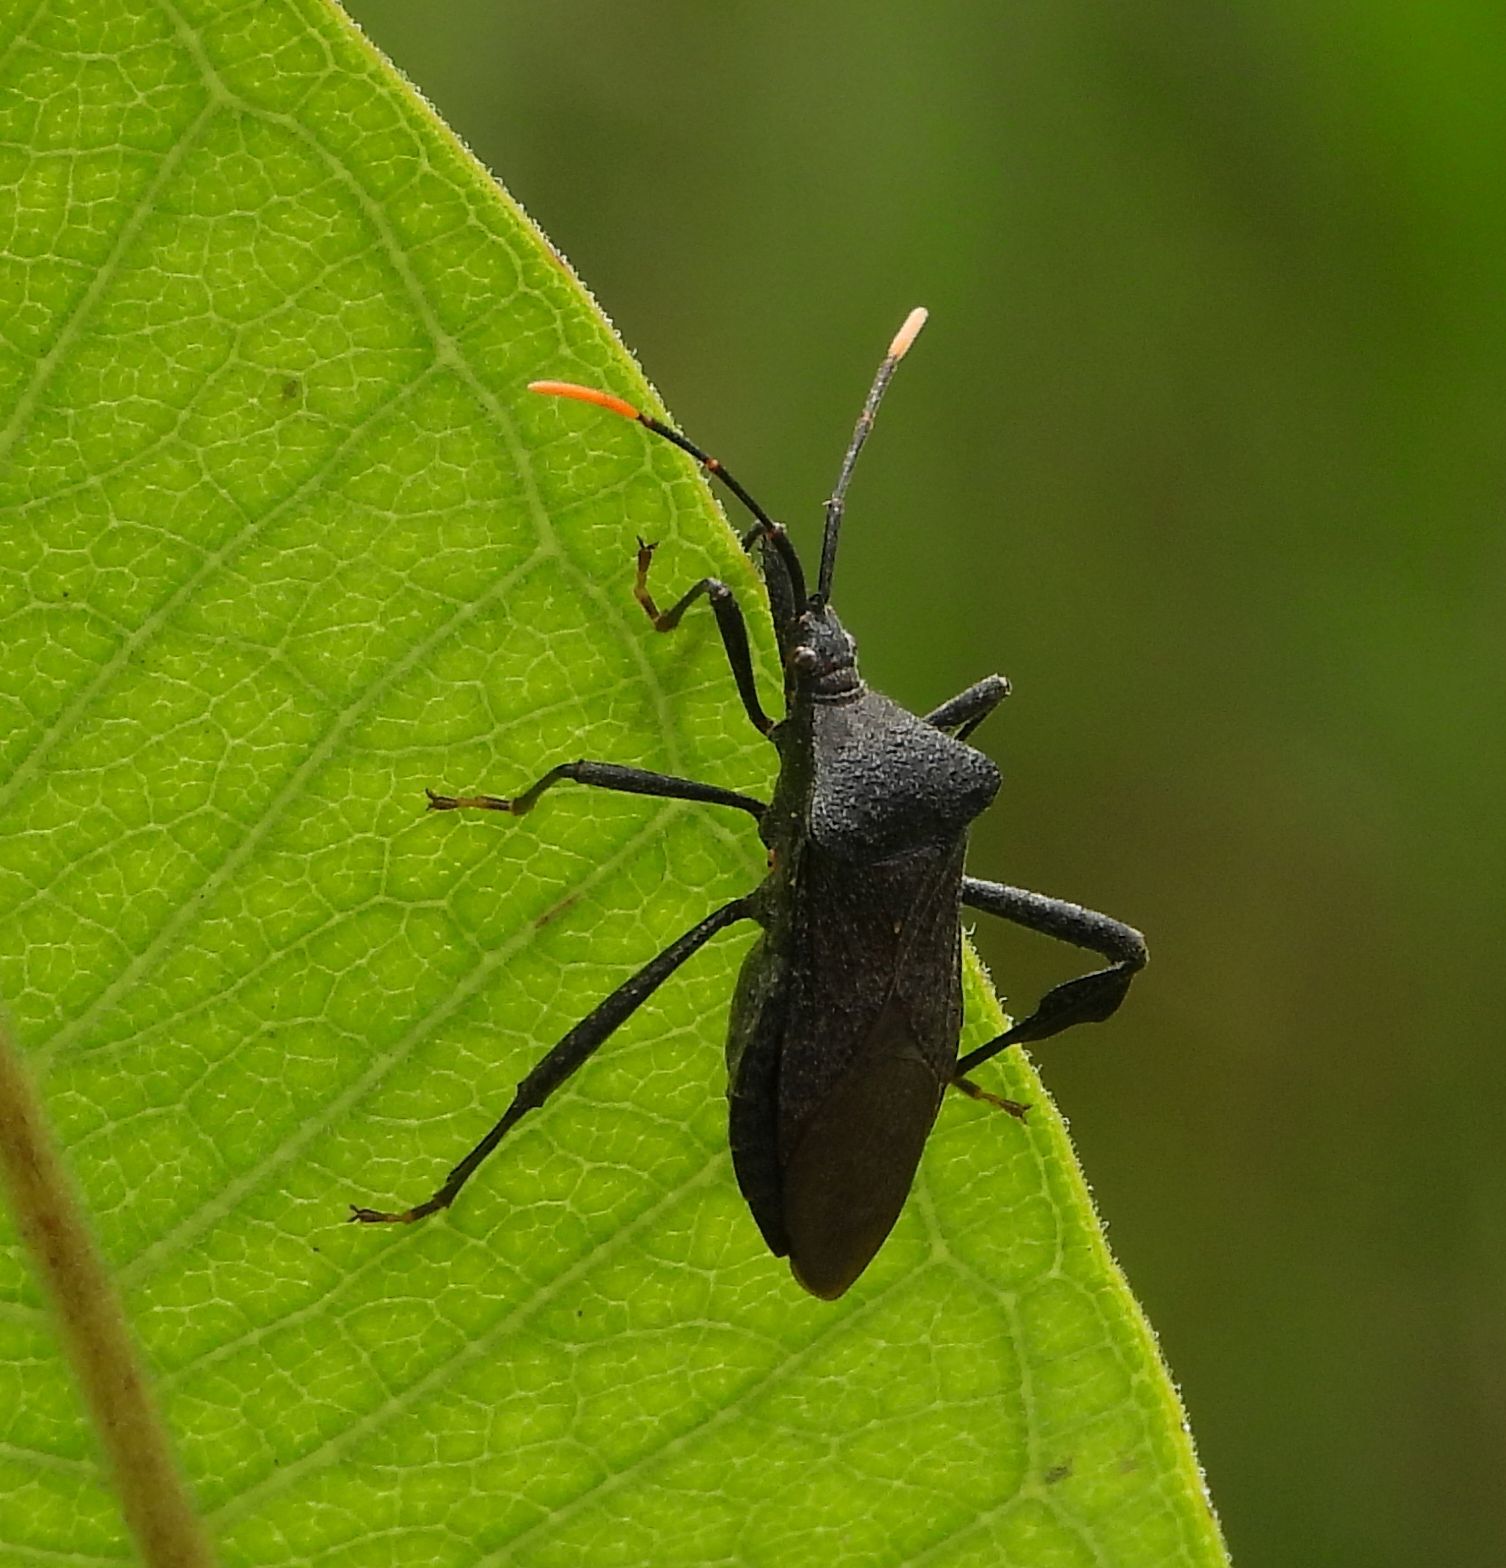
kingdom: Animalia
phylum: Arthropoda
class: Insecta
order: Hemiptera
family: Coreidae
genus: Acanthocephala
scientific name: Acanthocephala terminalis
